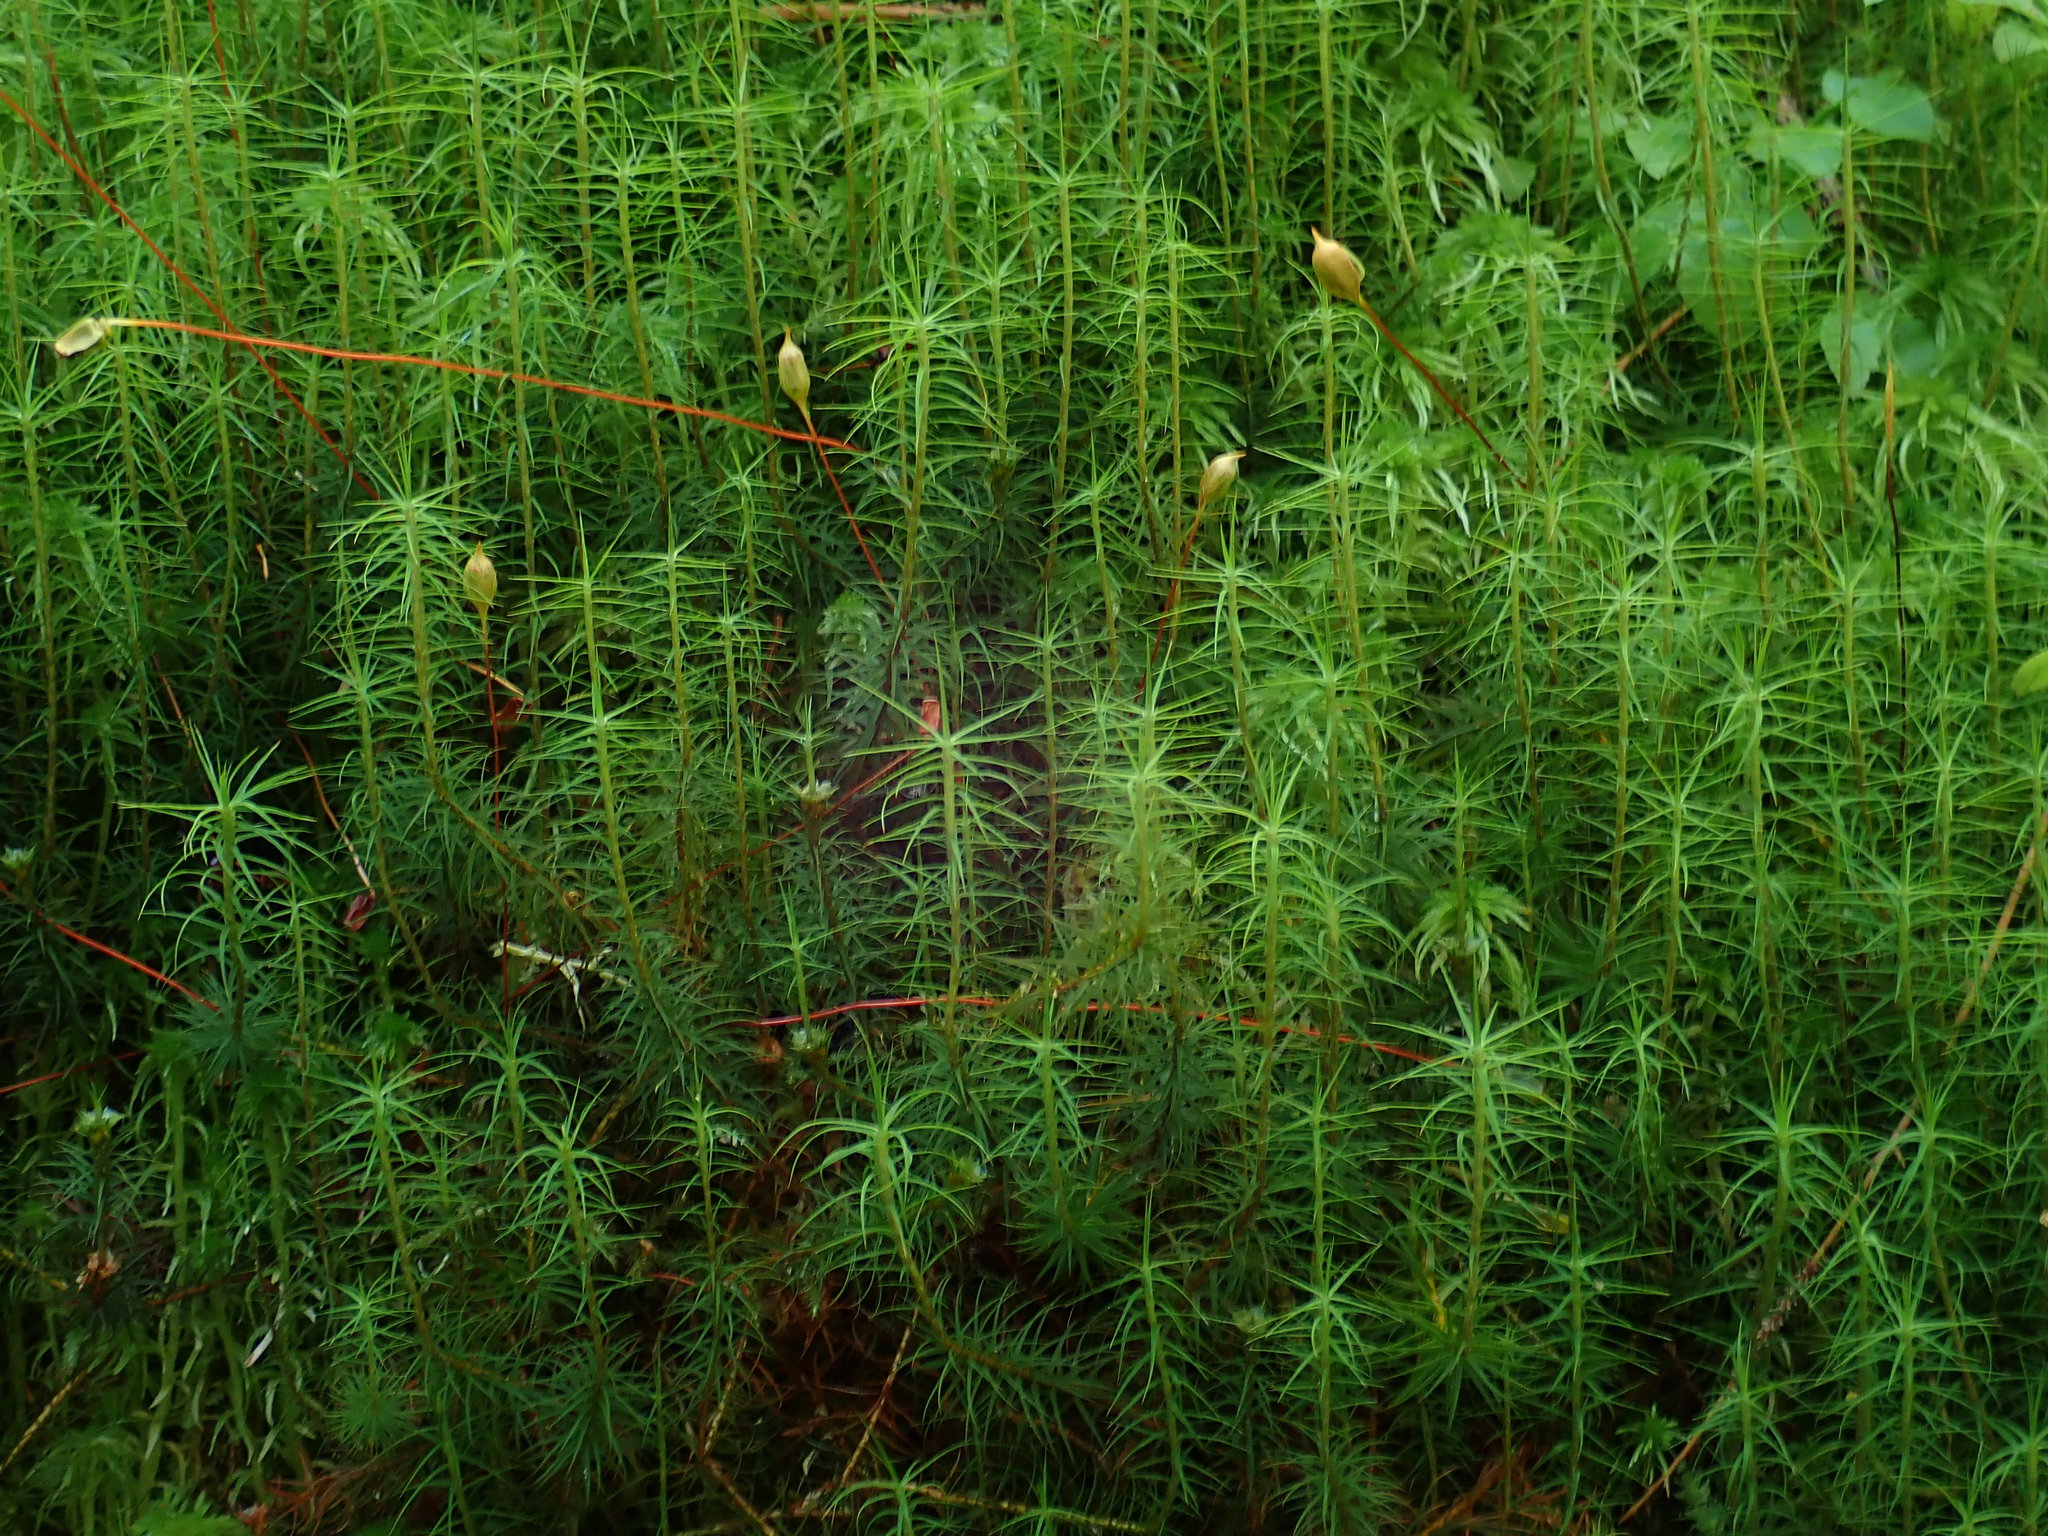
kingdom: Plantae
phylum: Bryophyta
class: Polytrichopsida
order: Polytrichales
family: Polytrichaceae
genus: Polytrichum
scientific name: Polytrichum commune
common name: Common haircap
